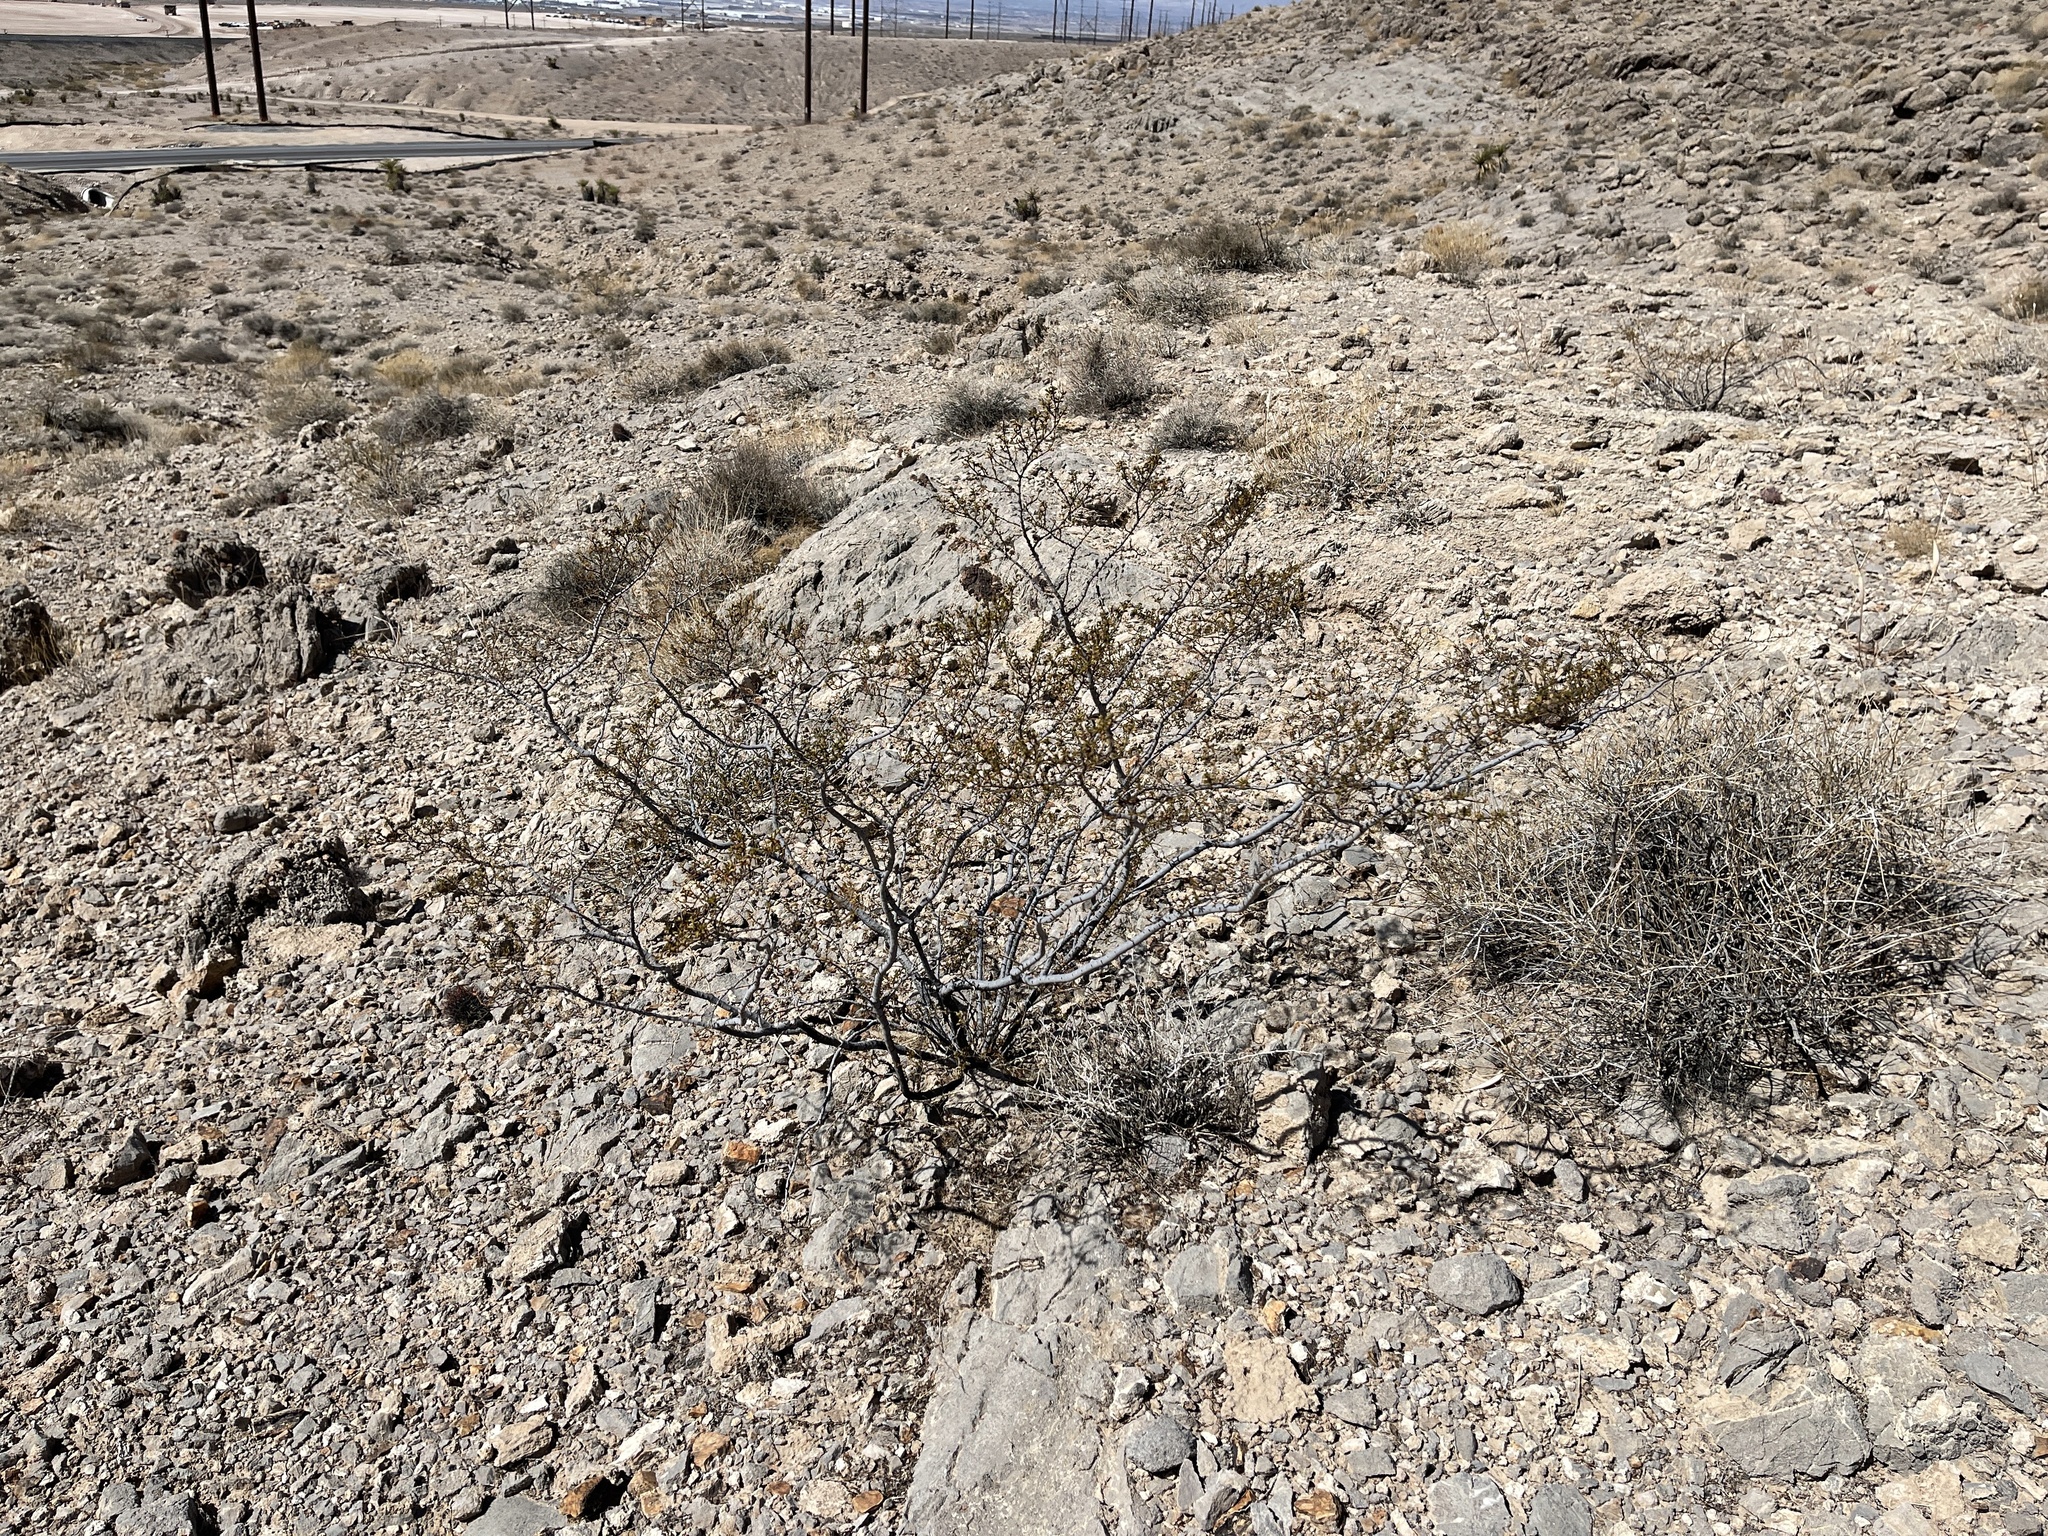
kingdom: Plantae
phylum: Tracheophyta
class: Magnoliopsida
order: Zygophyllales
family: Zygophyllaceae
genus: Larrea
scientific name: Larrea tridentata
